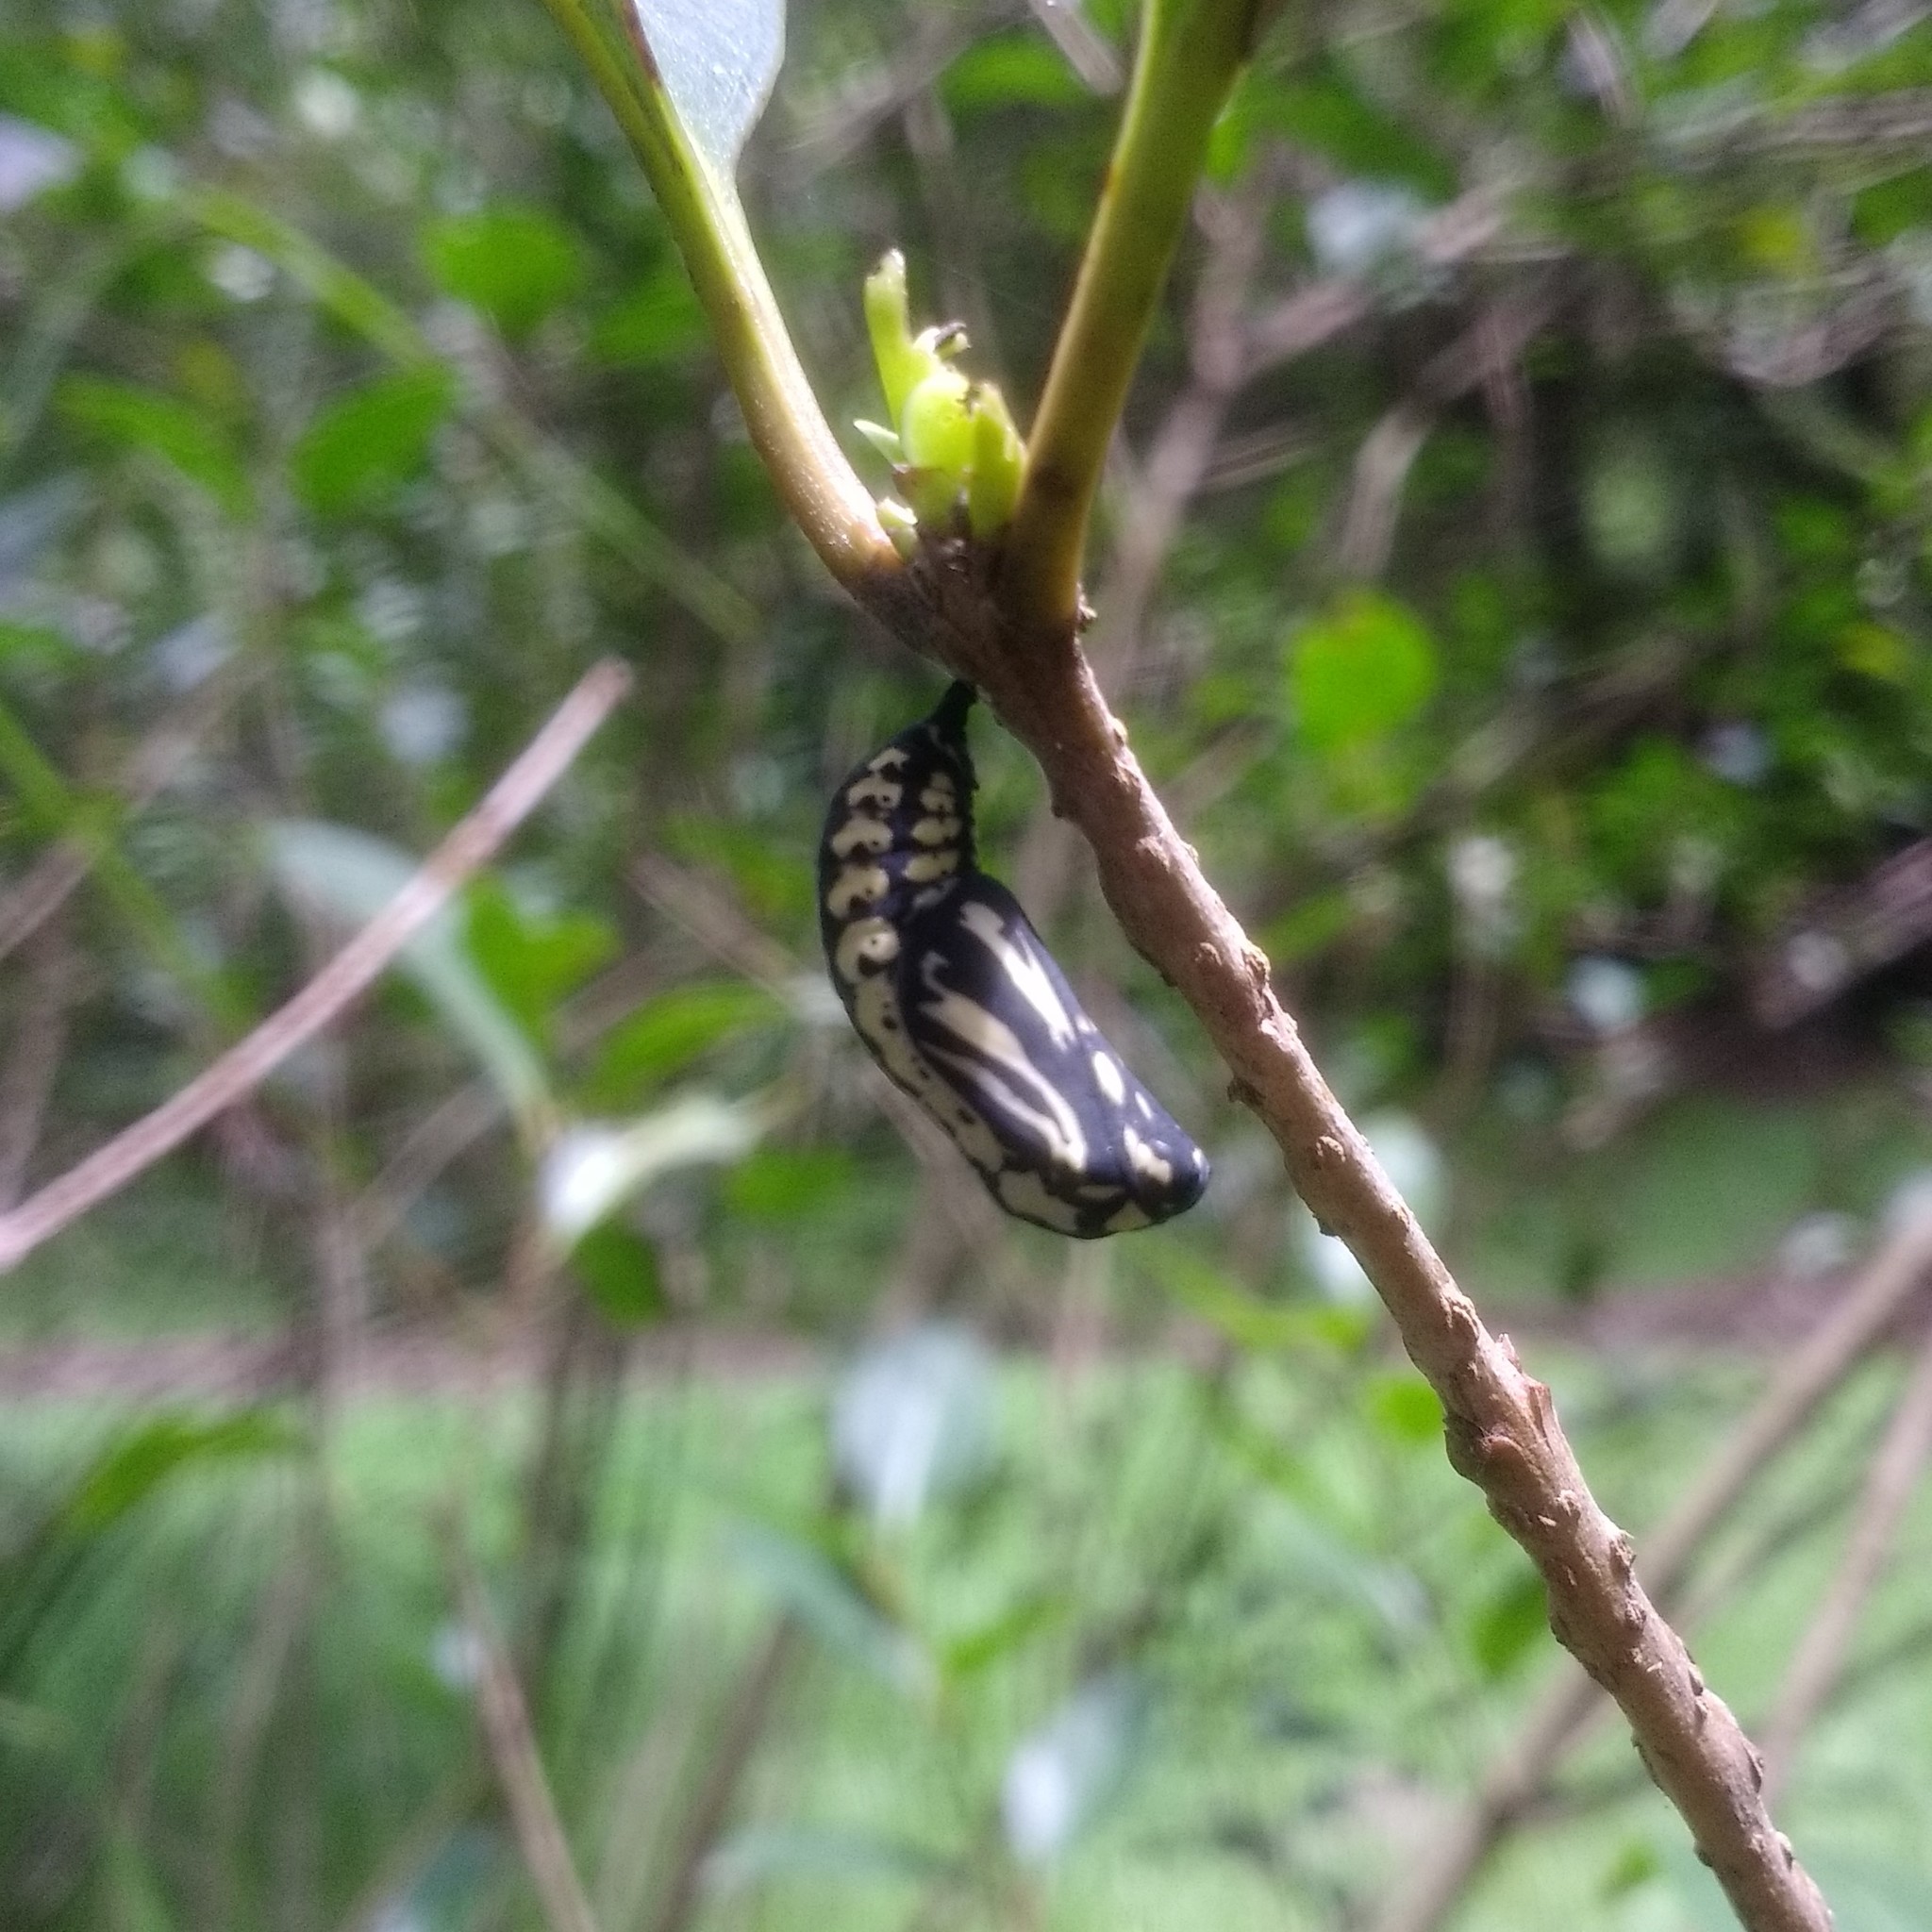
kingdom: Animalia
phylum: Arthropoda
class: Insecta
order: Lepidoptera
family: Nymphalidae
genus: Chlosyne
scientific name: Chlosyne ehrenbergii
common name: White-rayed patch
